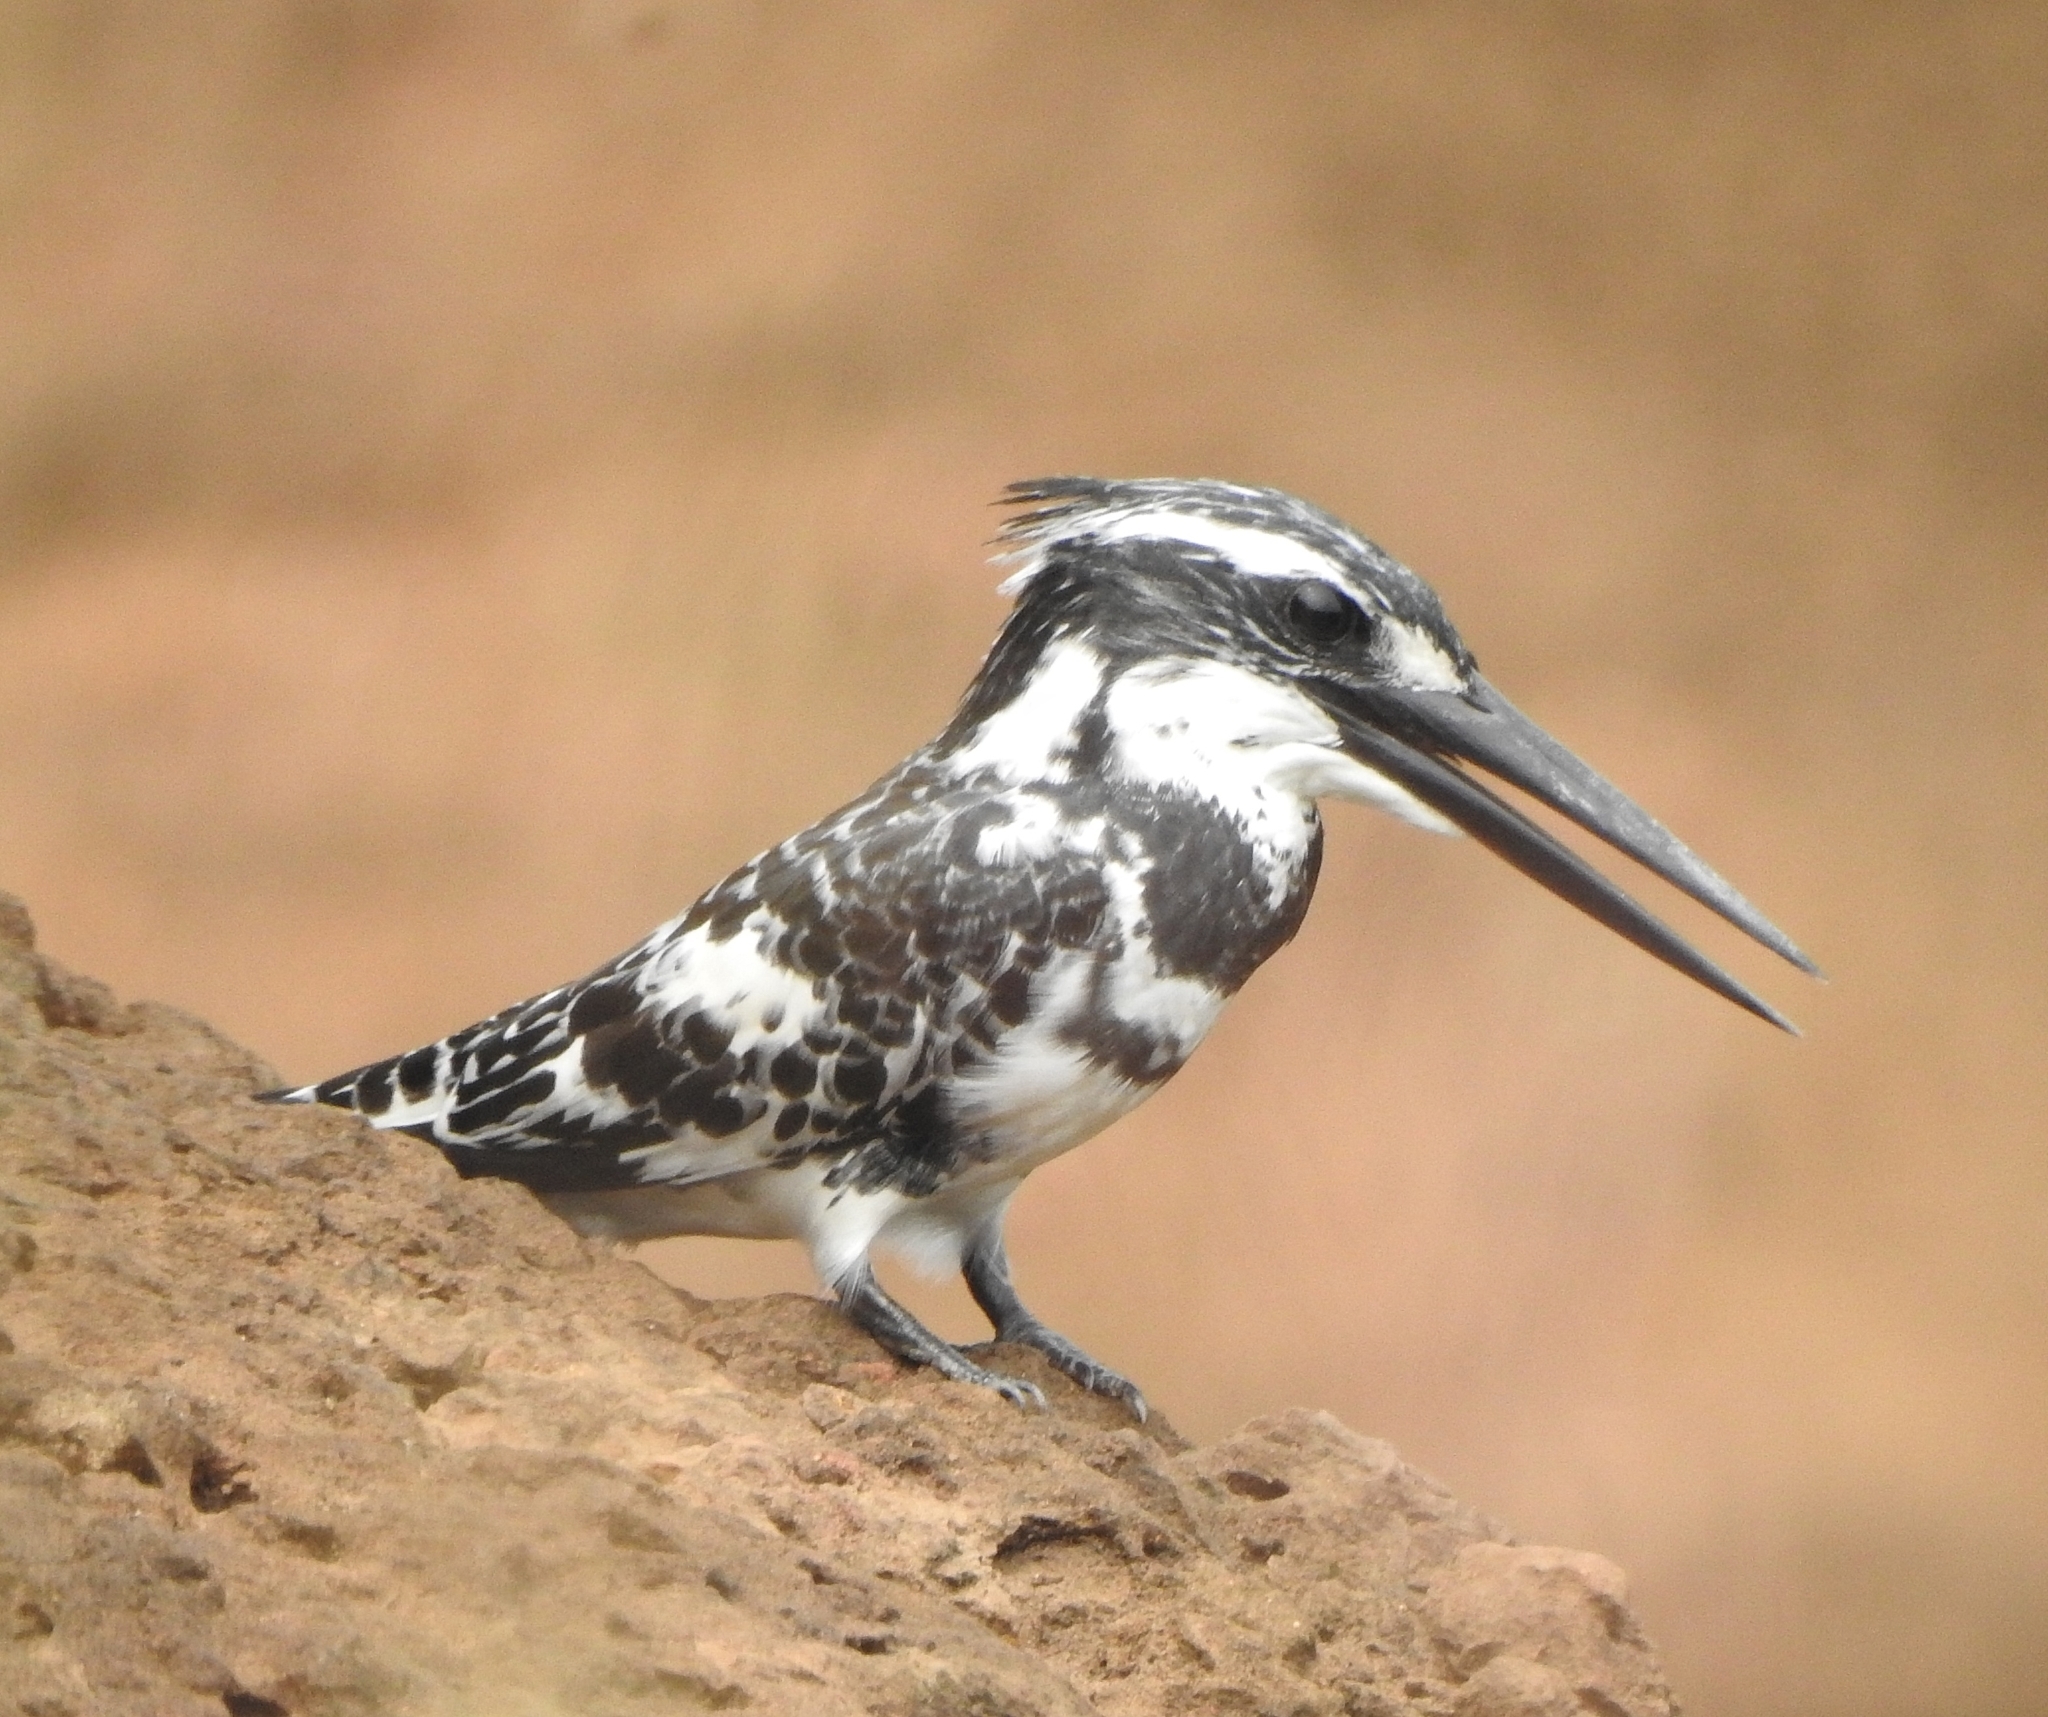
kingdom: Animalia
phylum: Chordata
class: Aves
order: Coraciiformes
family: Alcedinidae
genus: Ceryle
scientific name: Ceryle rudis
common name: Pied kingfisher
